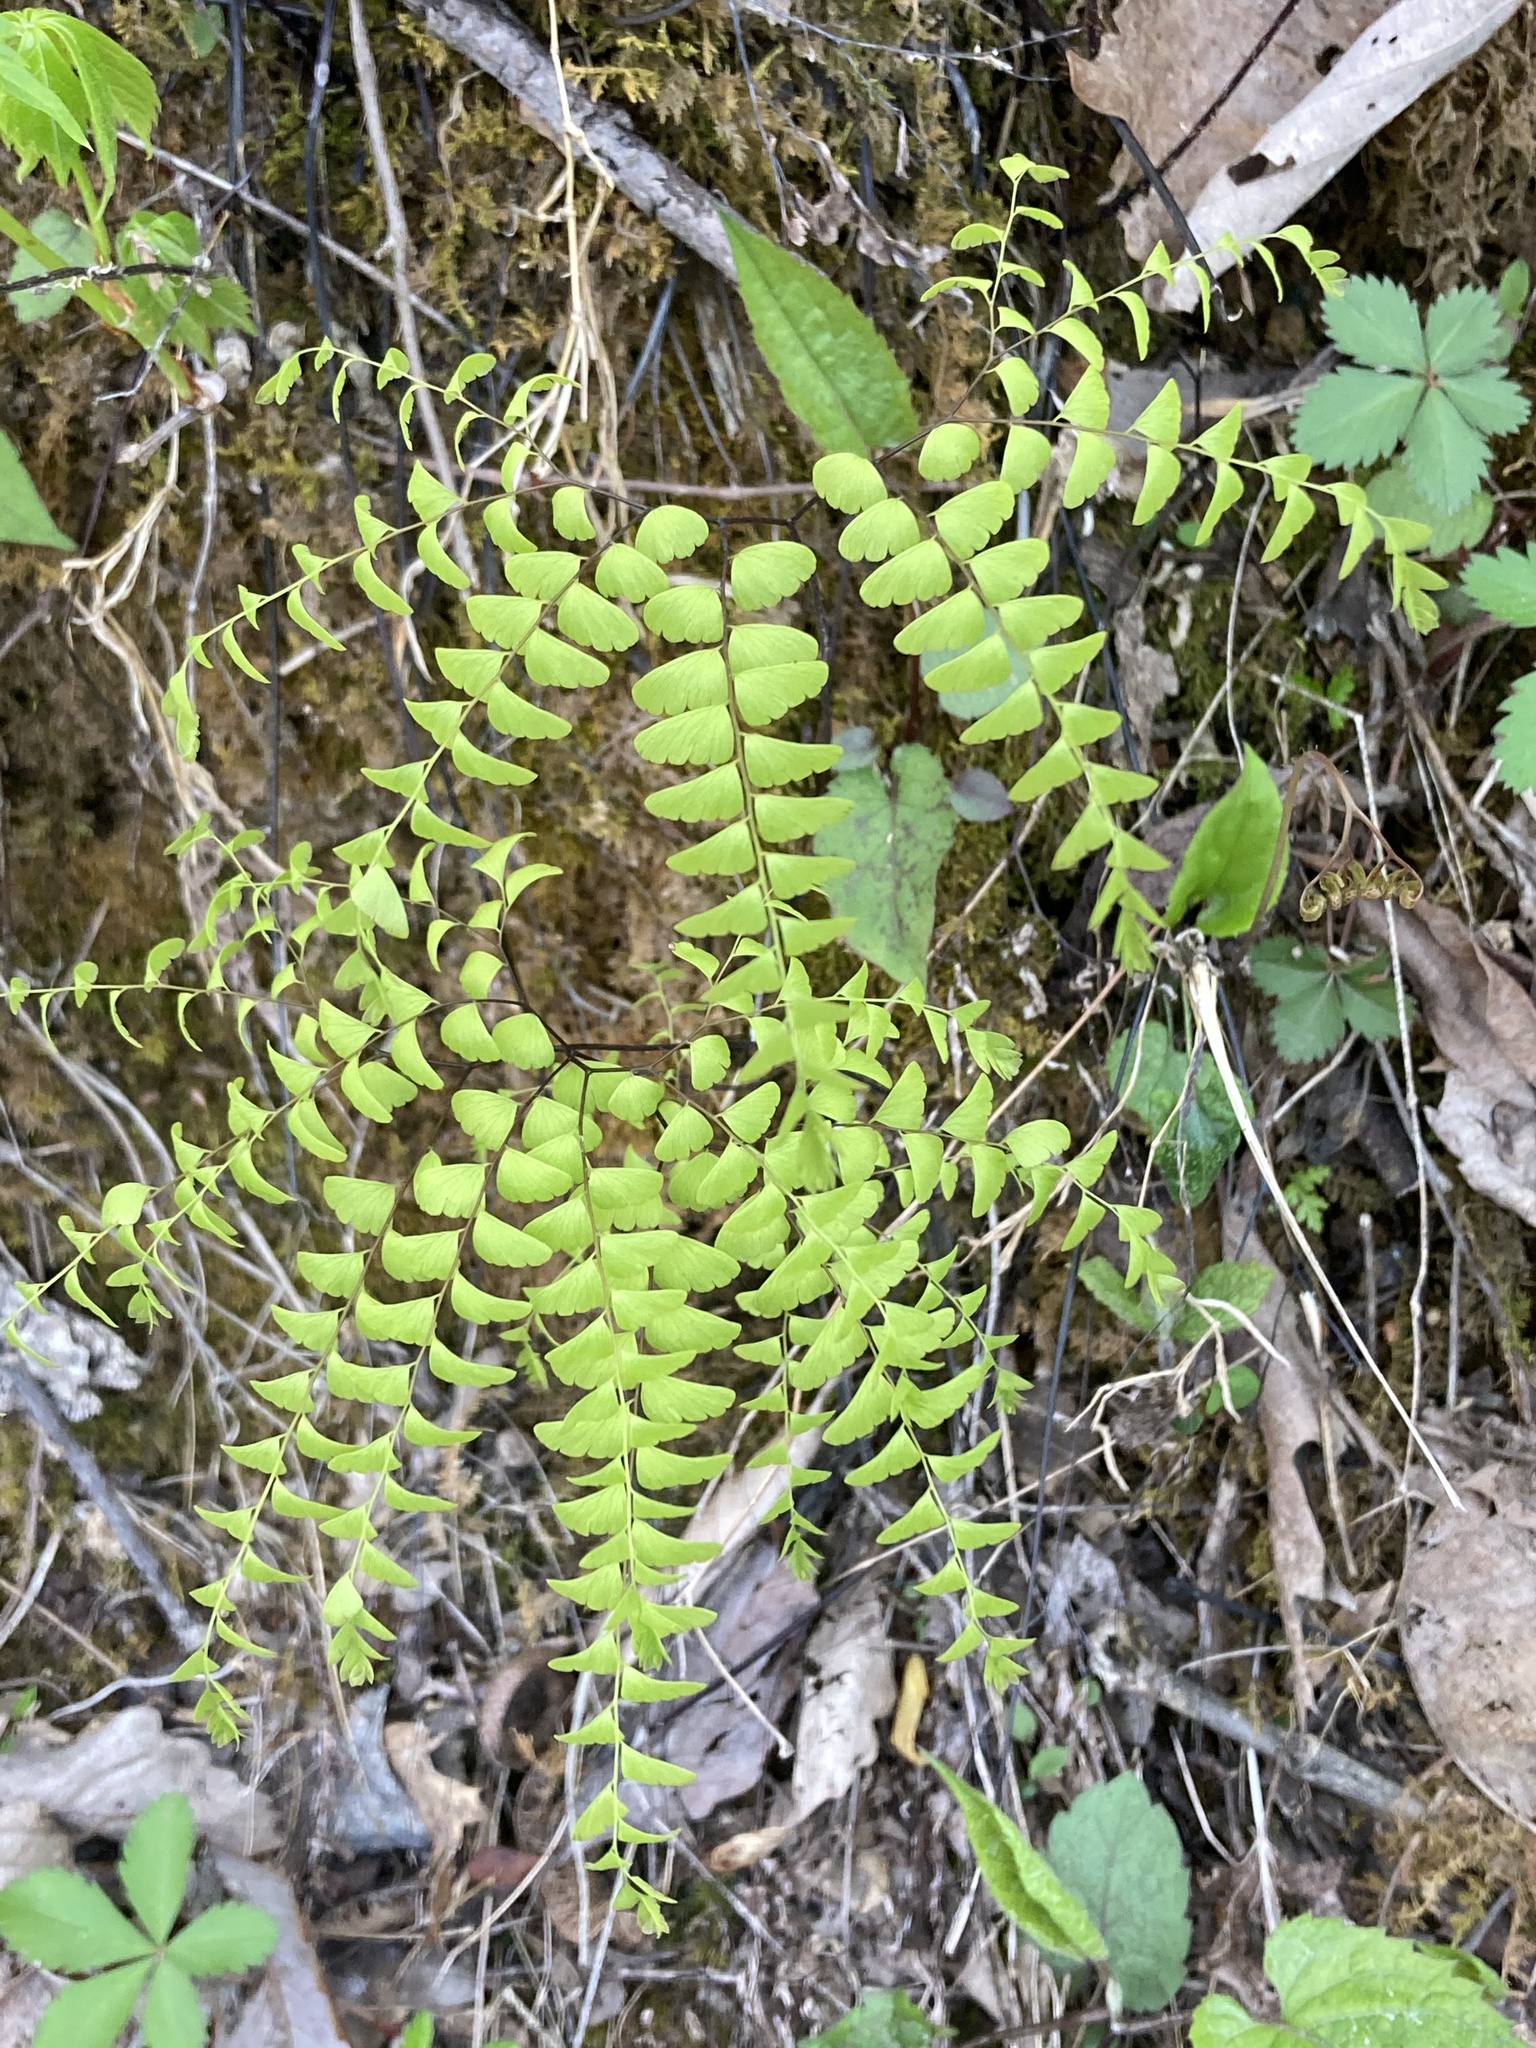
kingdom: Plantae
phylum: Tracheophyta
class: Polypodiopsida
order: Polypodiales
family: Pteridaceae
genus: Adiantum
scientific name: Adiantum pedatum
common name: Five-finger fern
